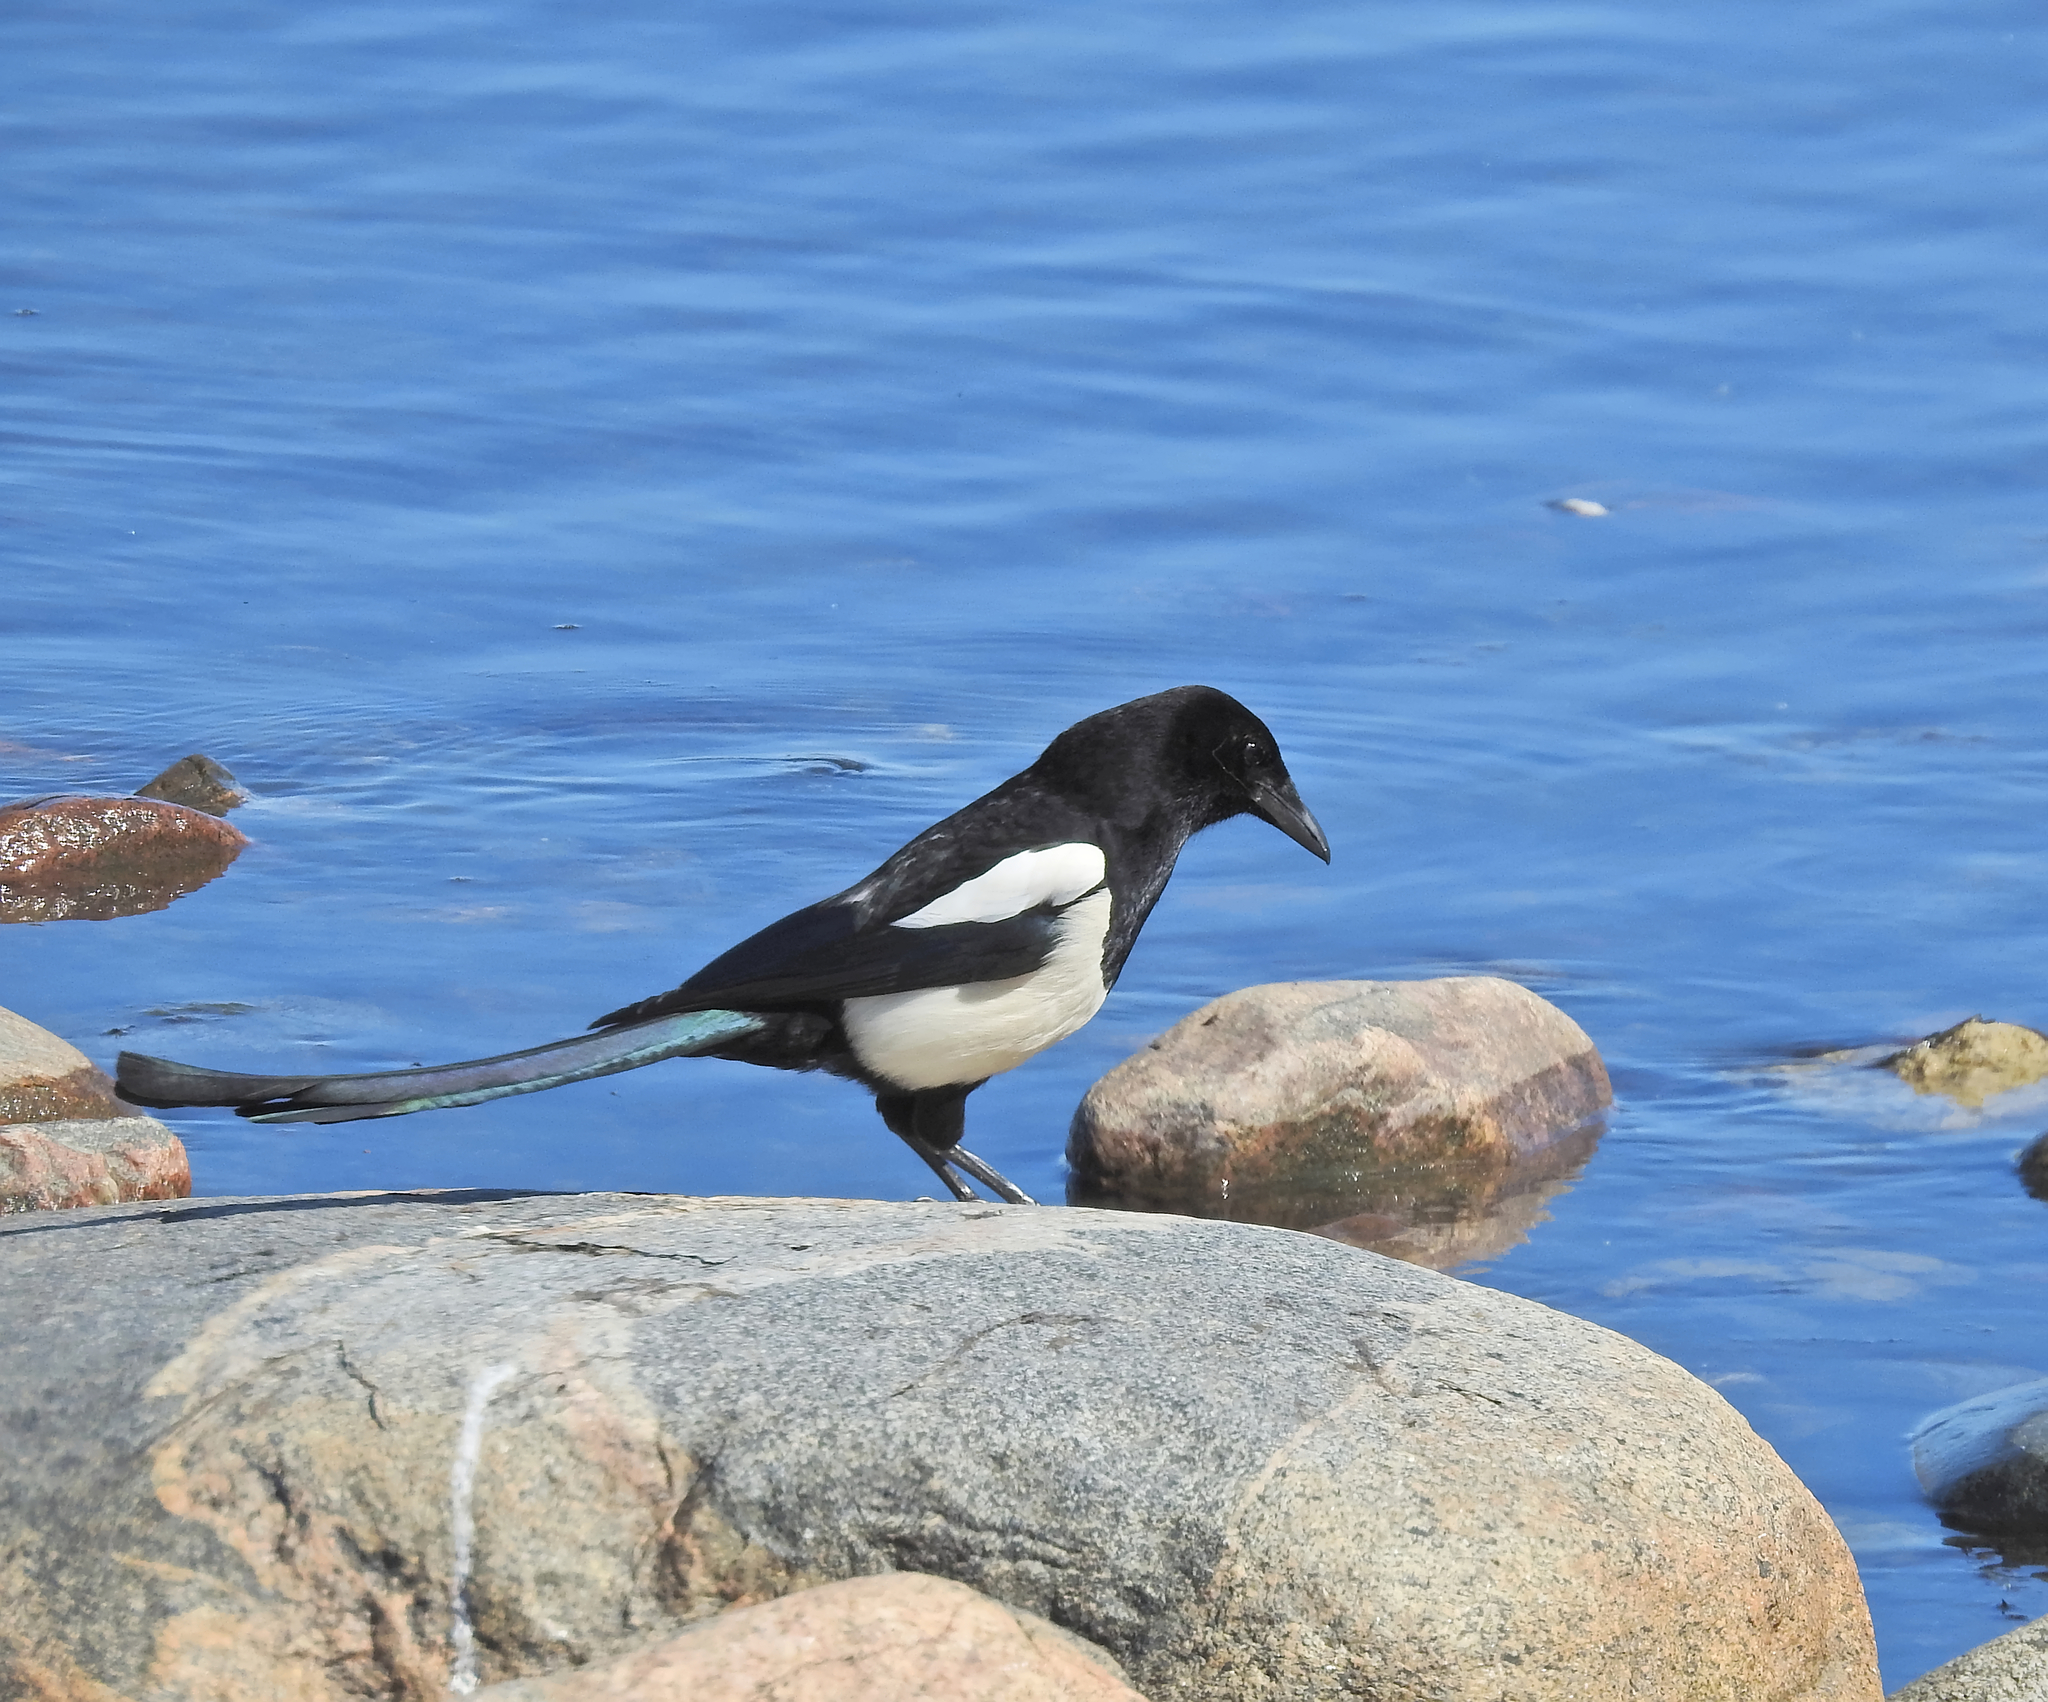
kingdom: Animalia
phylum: Chordata
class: Aves
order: Passeriformes
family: Corvidae
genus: Pica
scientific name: Pica pica
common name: Eurasian magpie
